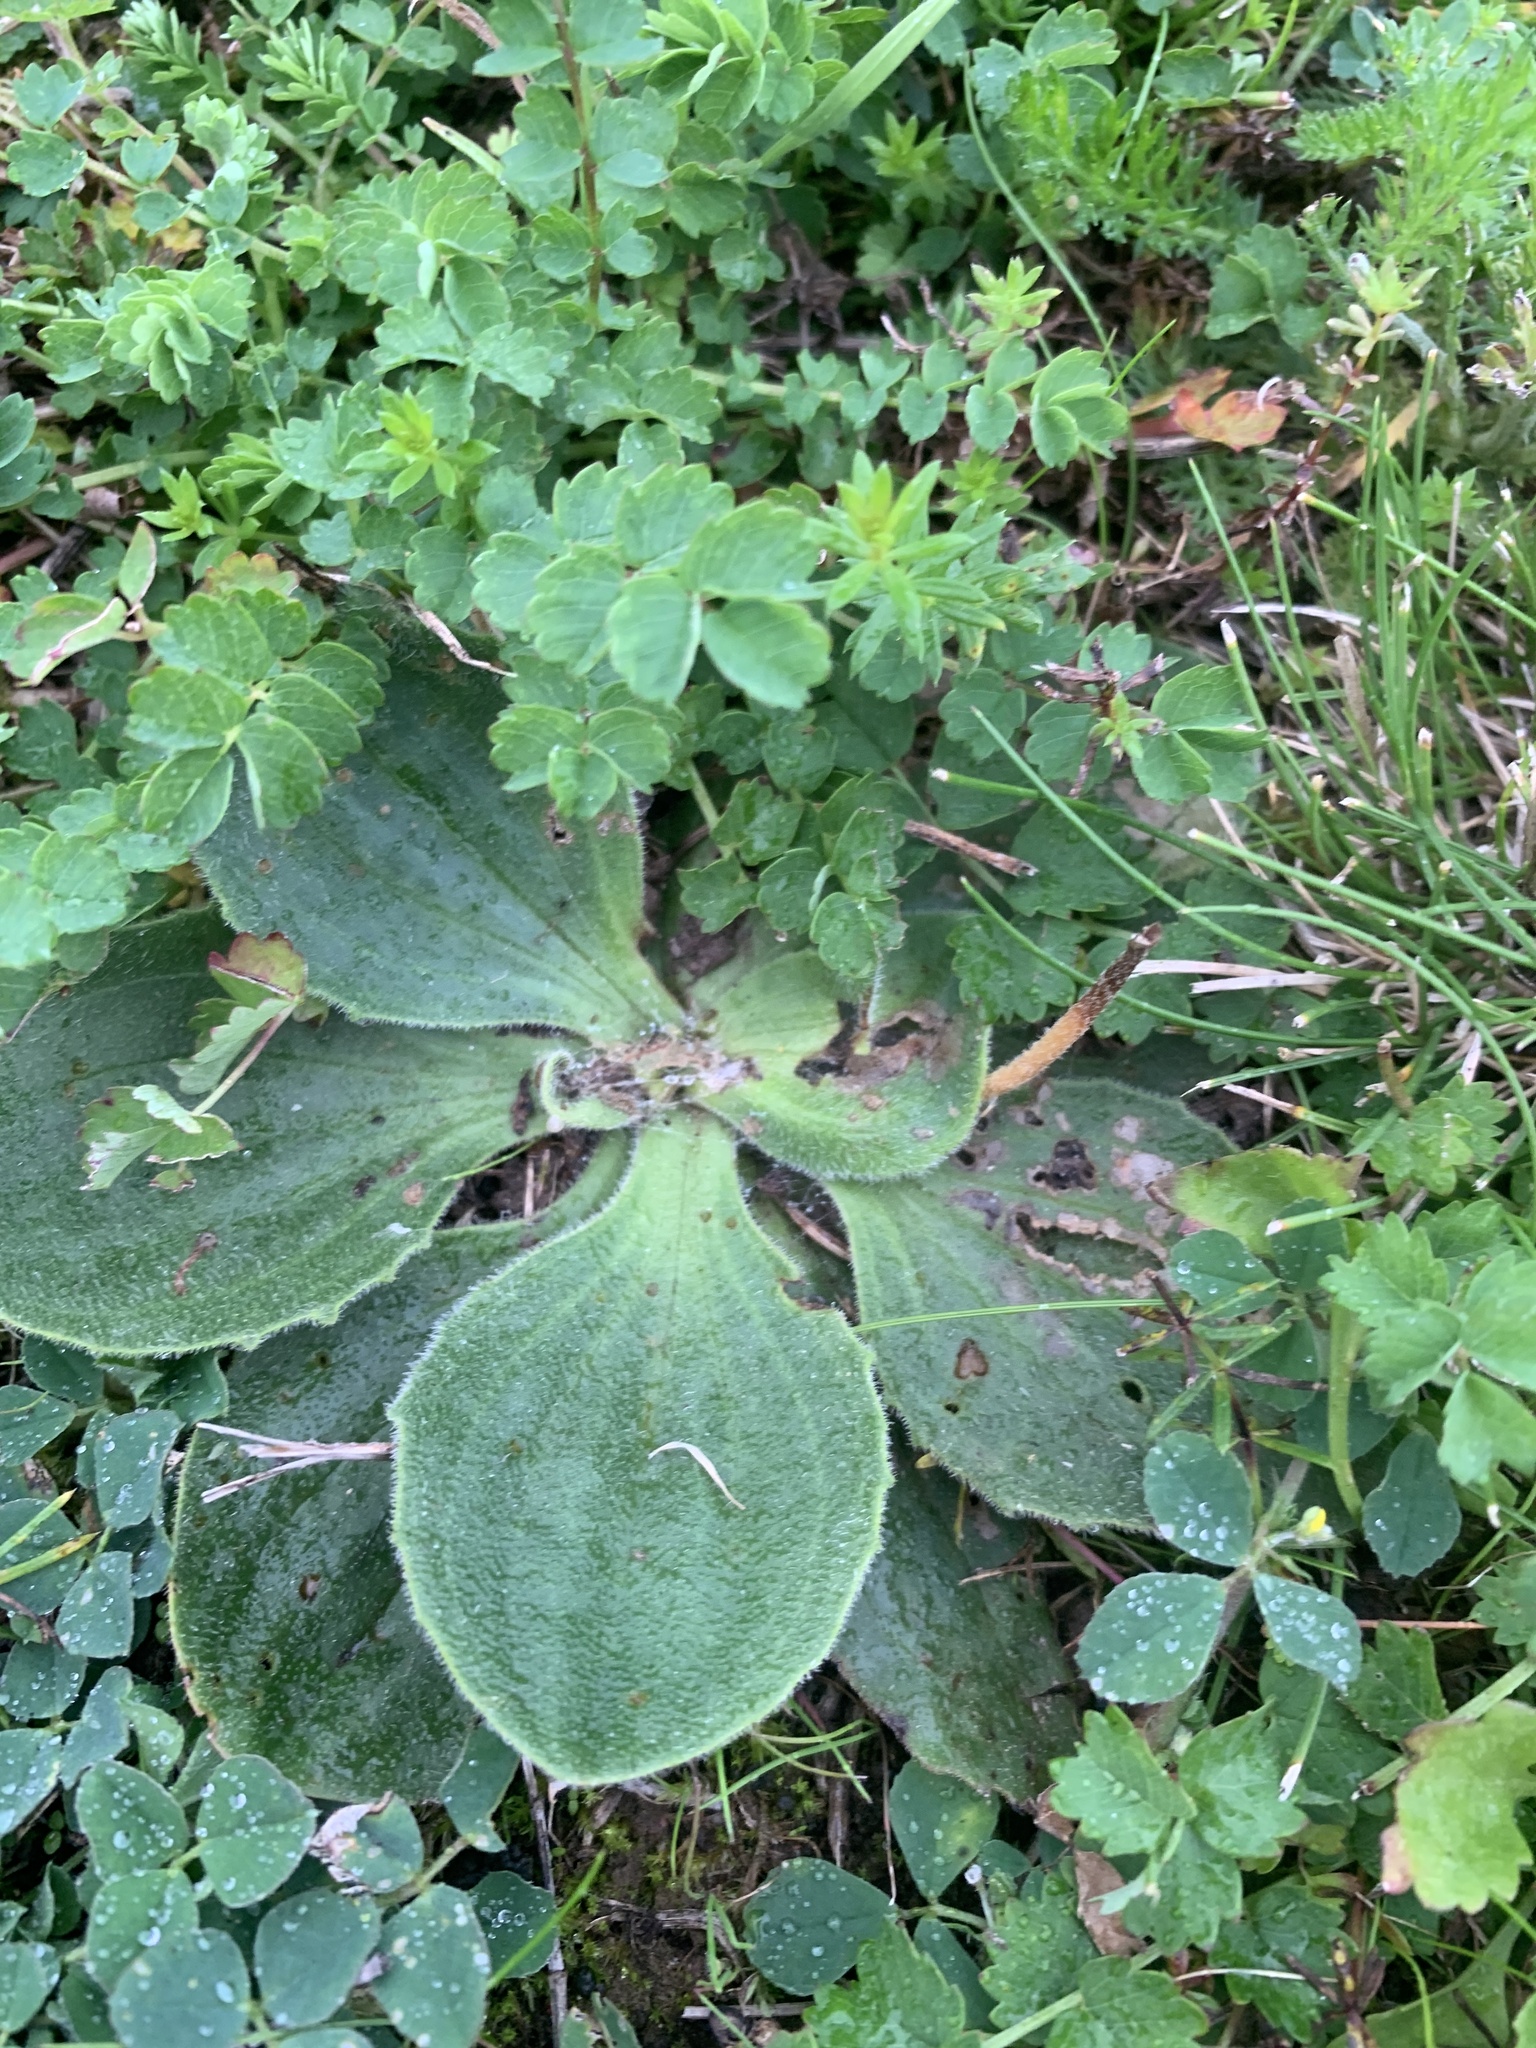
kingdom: Plantae
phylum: Tracheophyta
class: Magnoliopsida
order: Lamiales
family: Plantaginaceae
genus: Plantago
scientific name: Plantago media
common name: Hoary plantain
